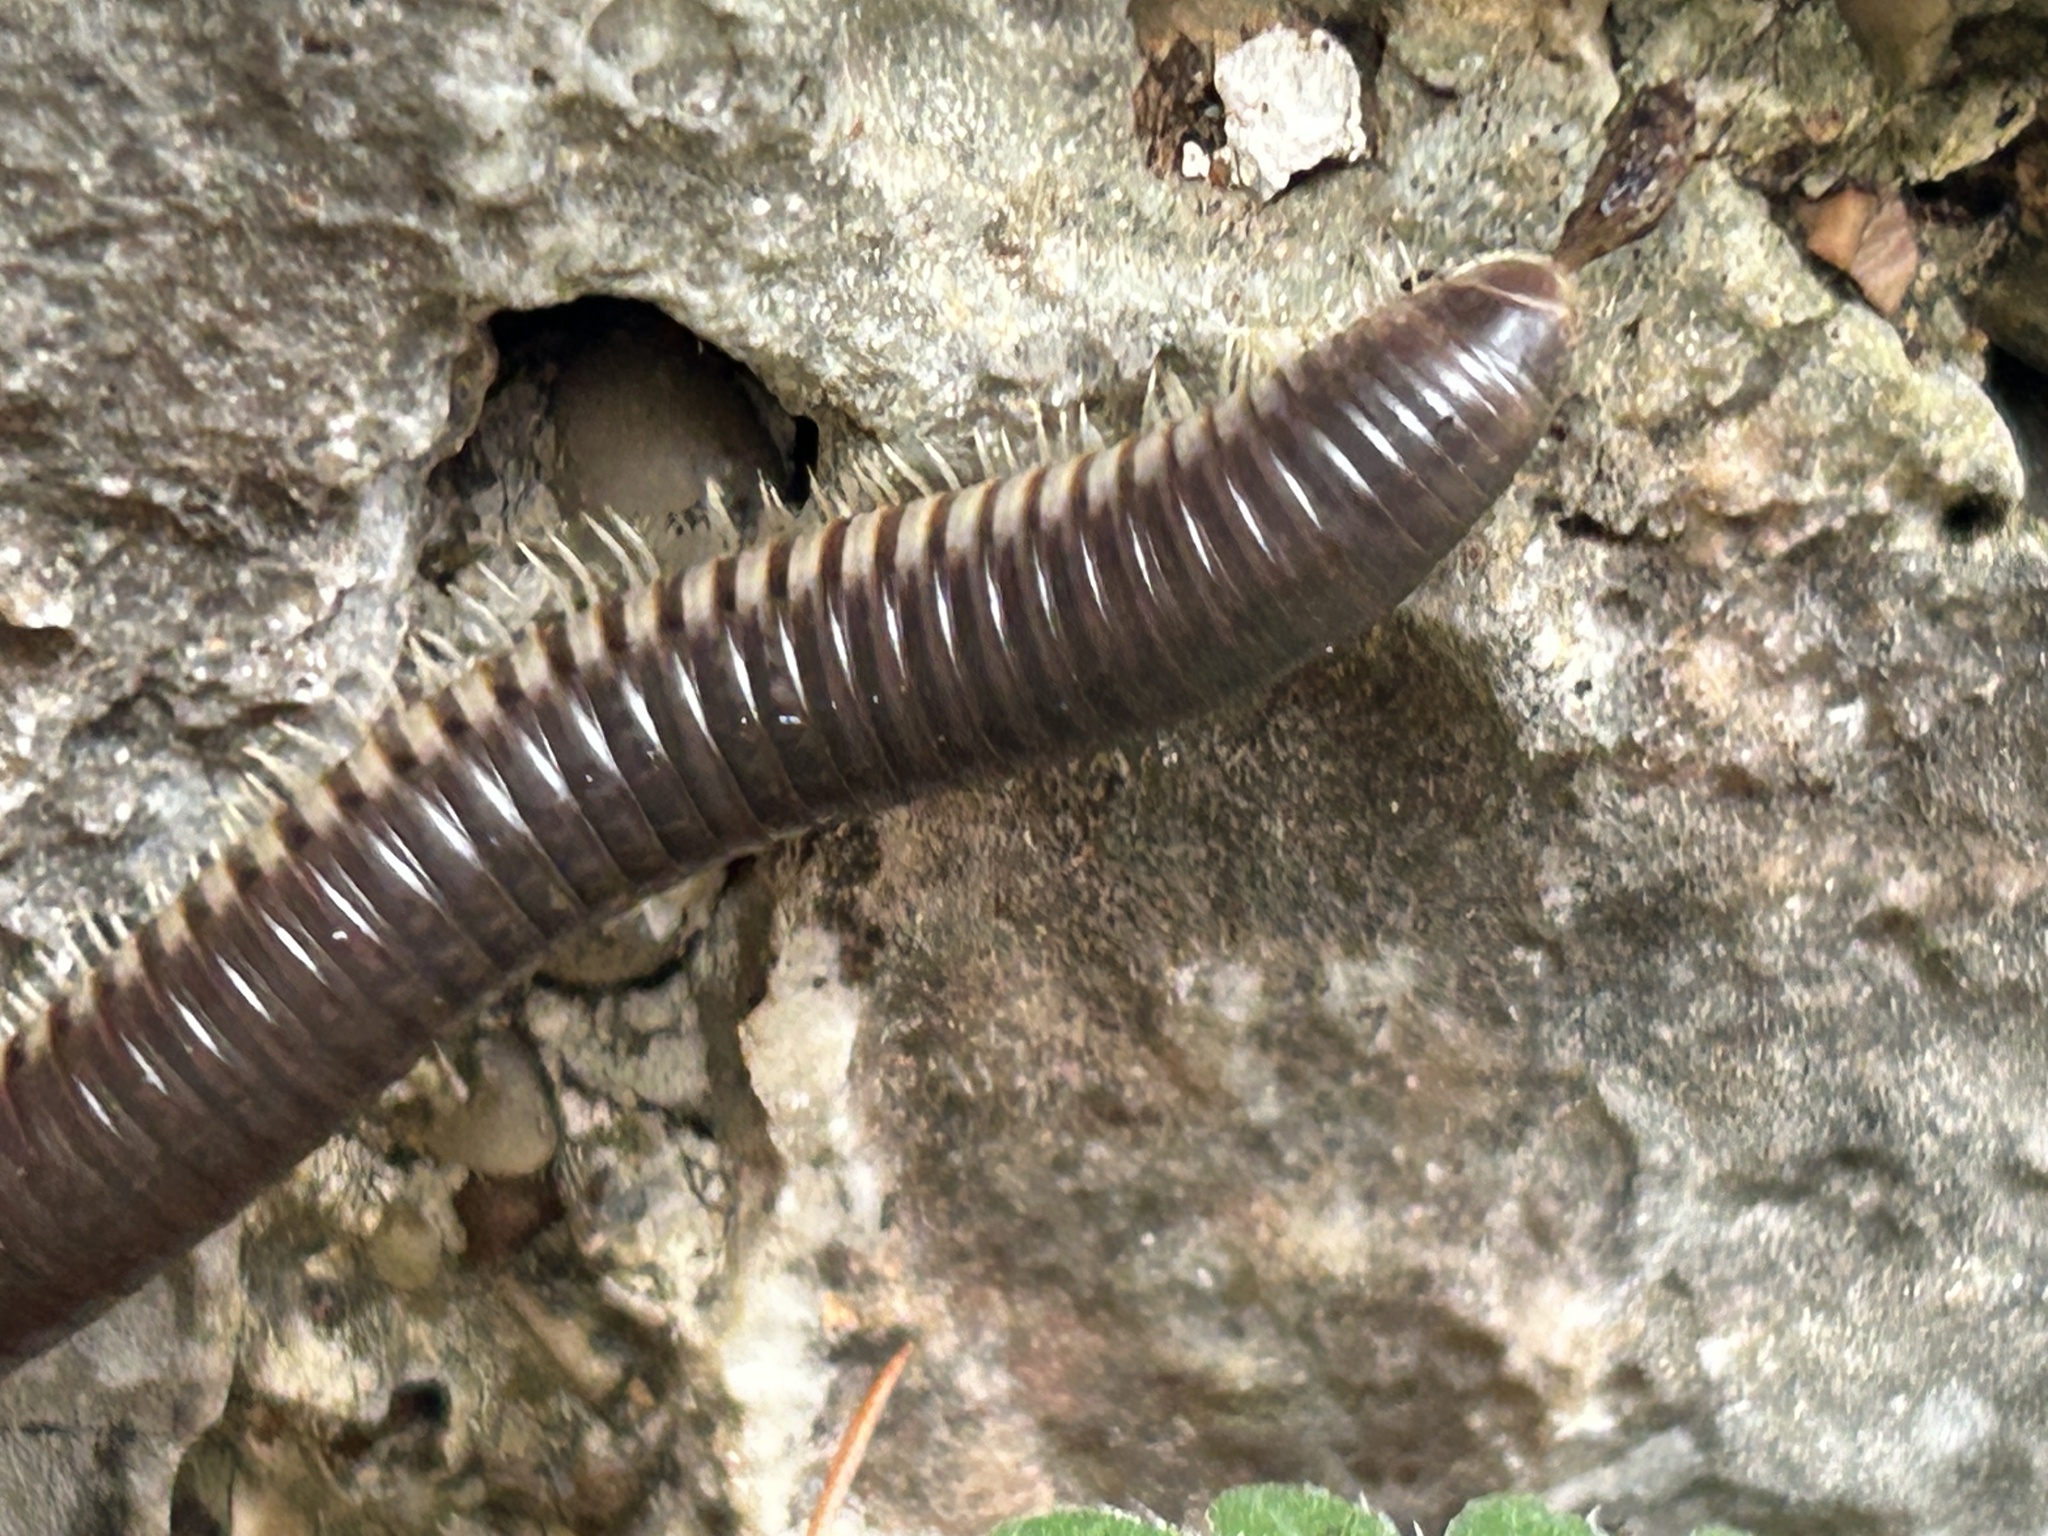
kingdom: Animalia
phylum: Arthropoda
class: Diplopoda
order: Julida
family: Julidae
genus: Pachyiulus
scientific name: Pachyiulus flavipes
